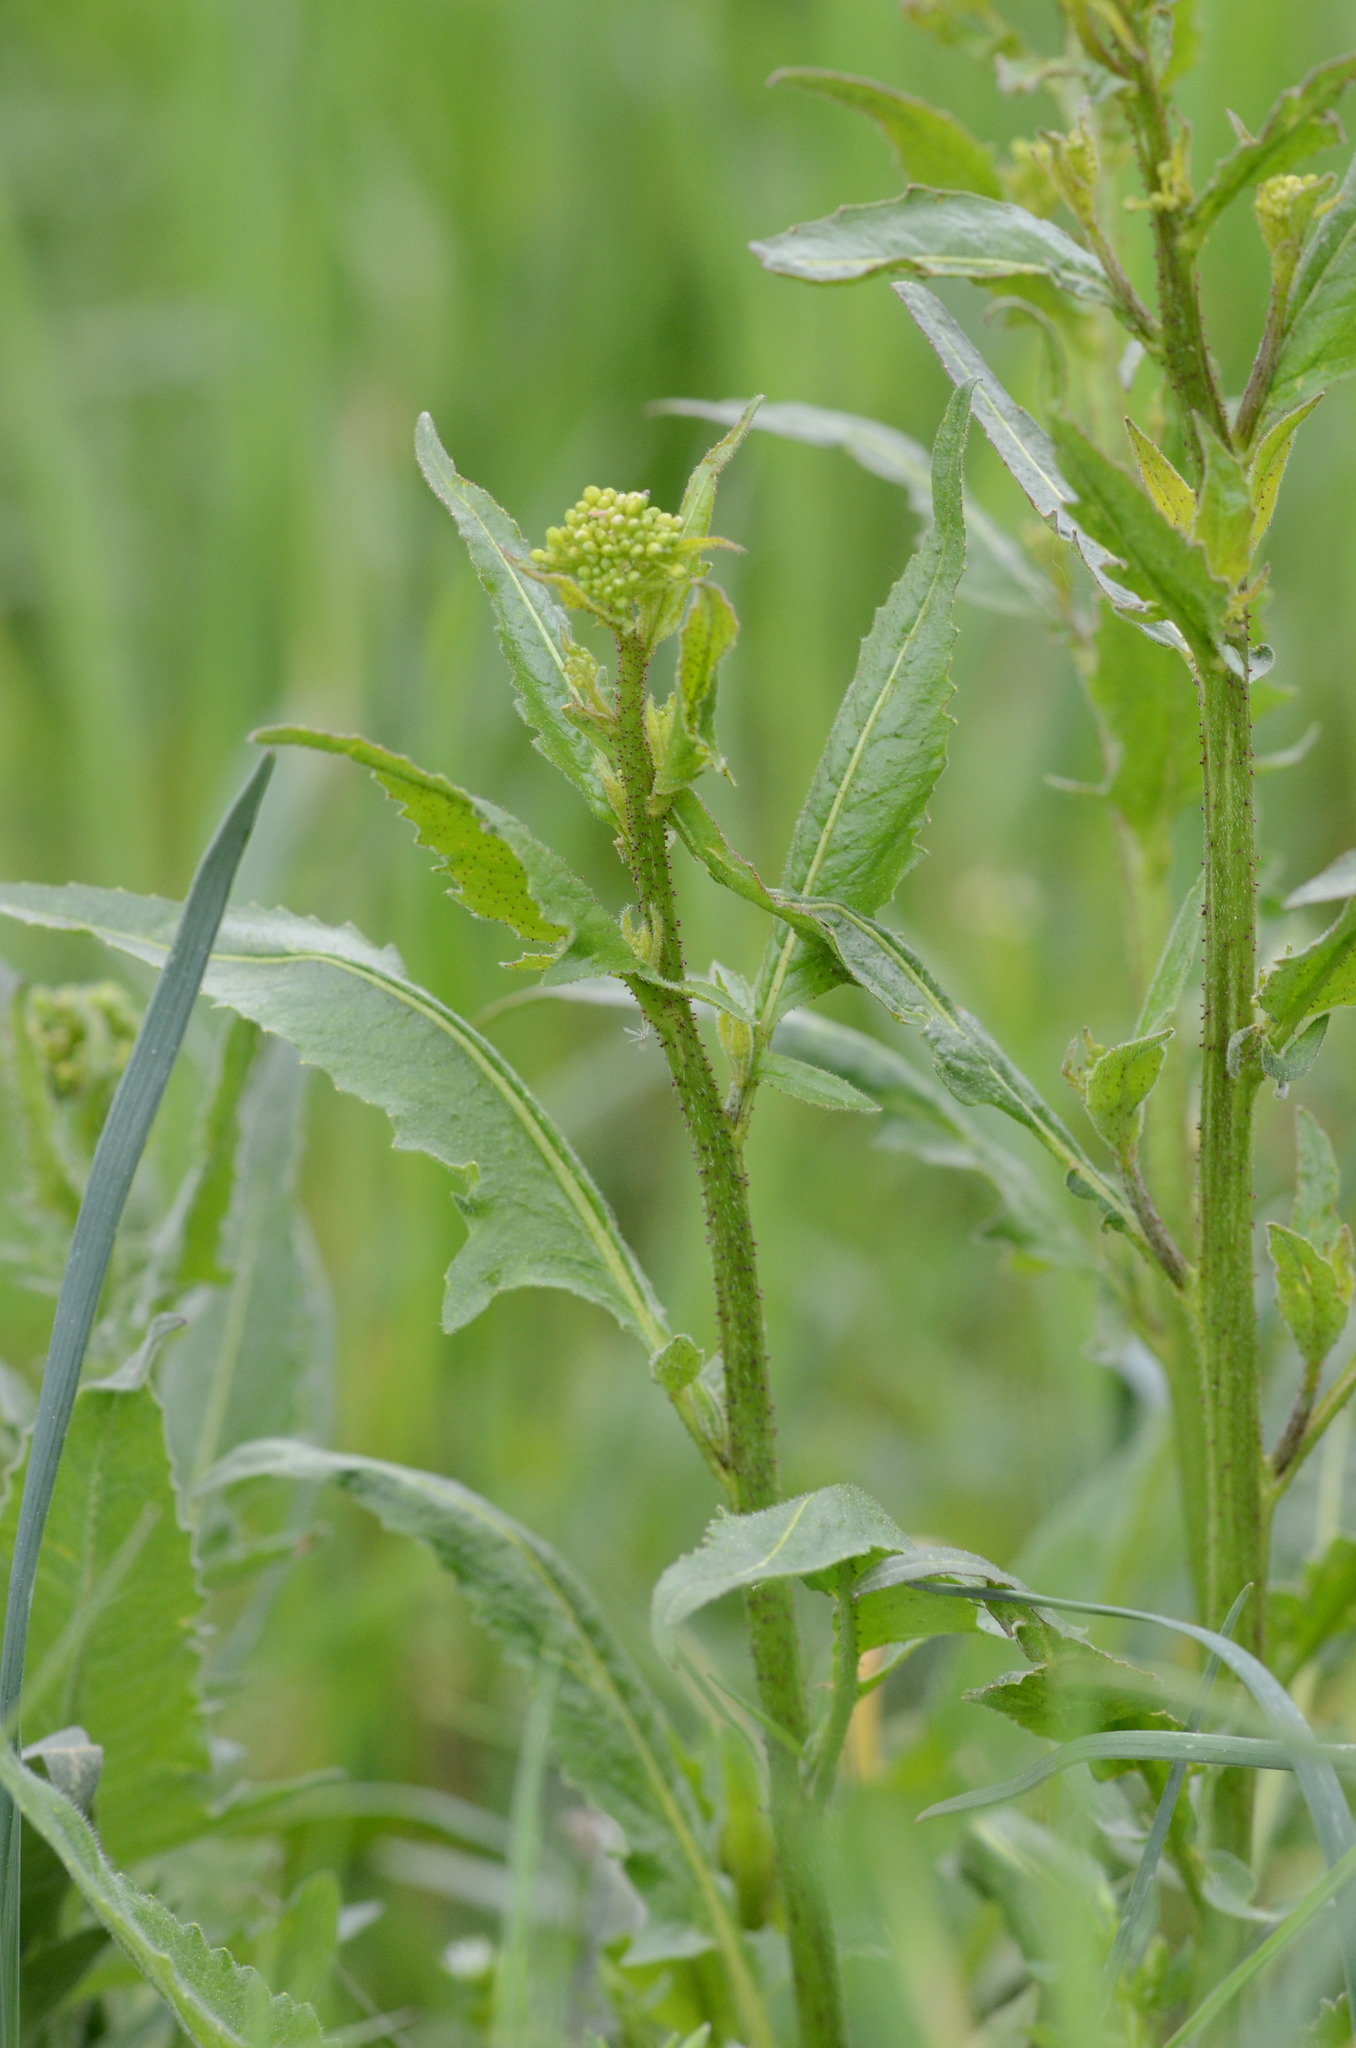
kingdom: Plantae
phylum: Tracheophyta
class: Magnoliopsida
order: Brassicales
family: Brassicaceae
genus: Bunias
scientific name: Bunias orientalis
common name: Warty-cabbage
